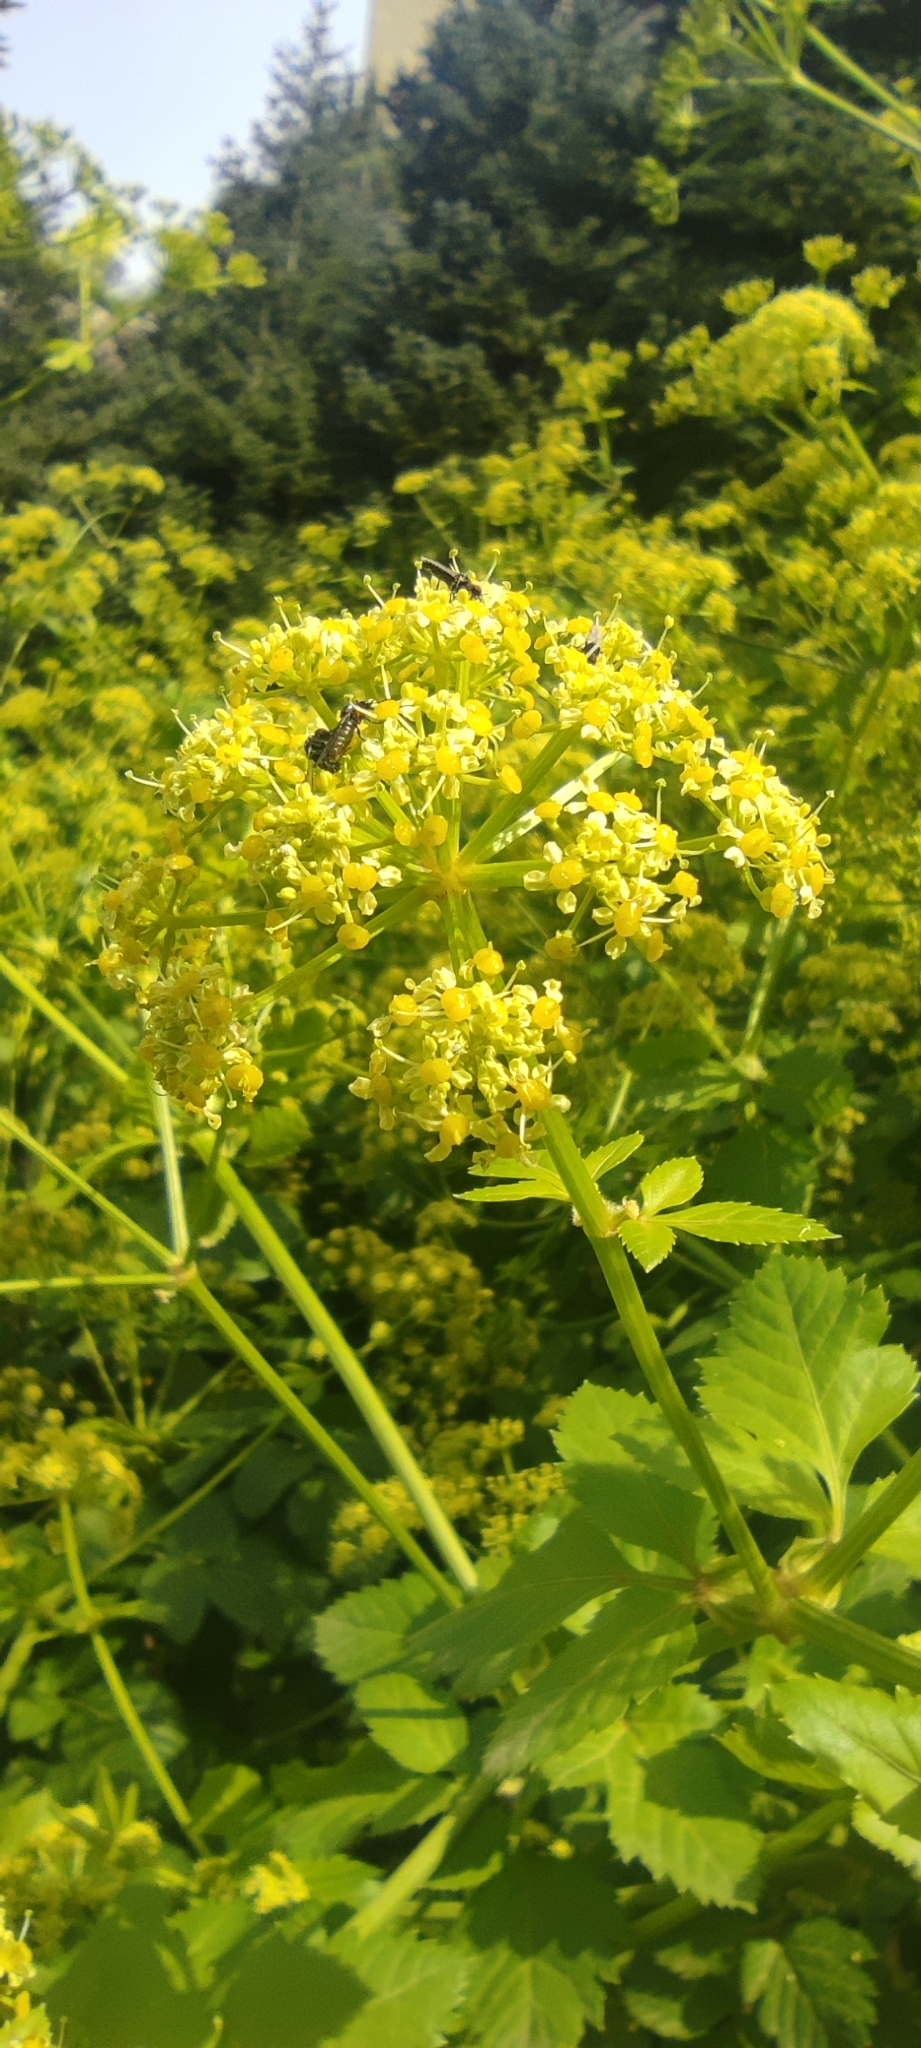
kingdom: Plantae
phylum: Tracheophyta
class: Magnoliopsida
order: Apiales
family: Apiaceae
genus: Smyrnium
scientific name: Smyrnium olusatrum
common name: Alexanders
